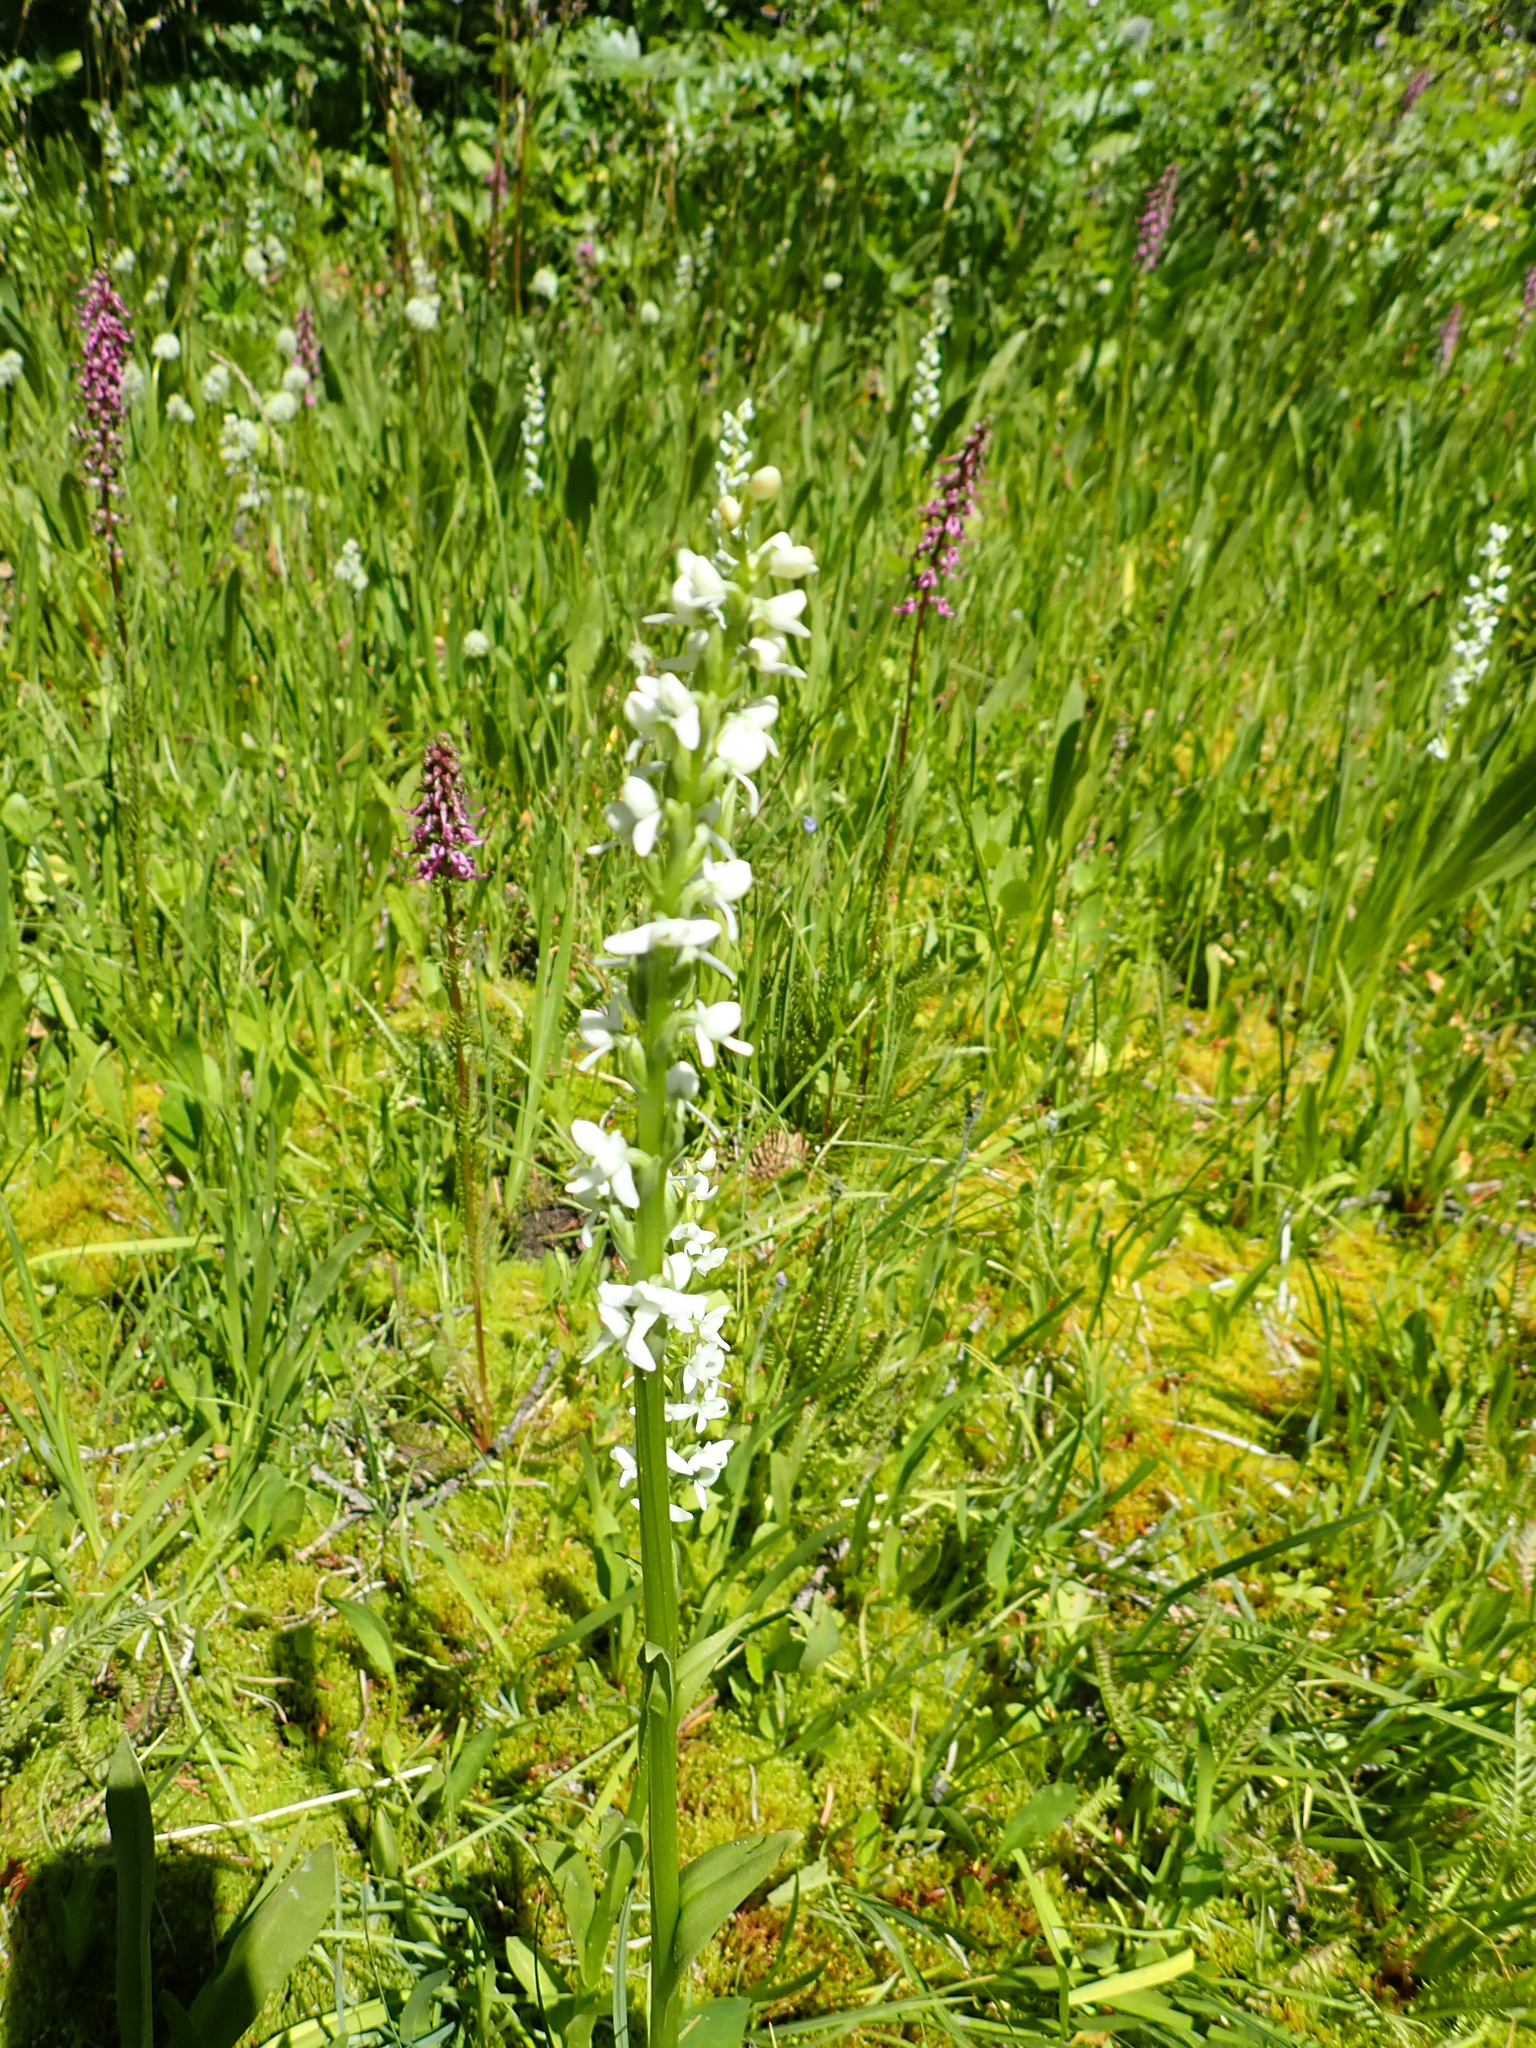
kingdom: Plantae
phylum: Tracheophyta
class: Liliopsida
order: Asparagales
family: Orchidaceae
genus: Platanthera
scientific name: Platanthera dilatata
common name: Bog candles
